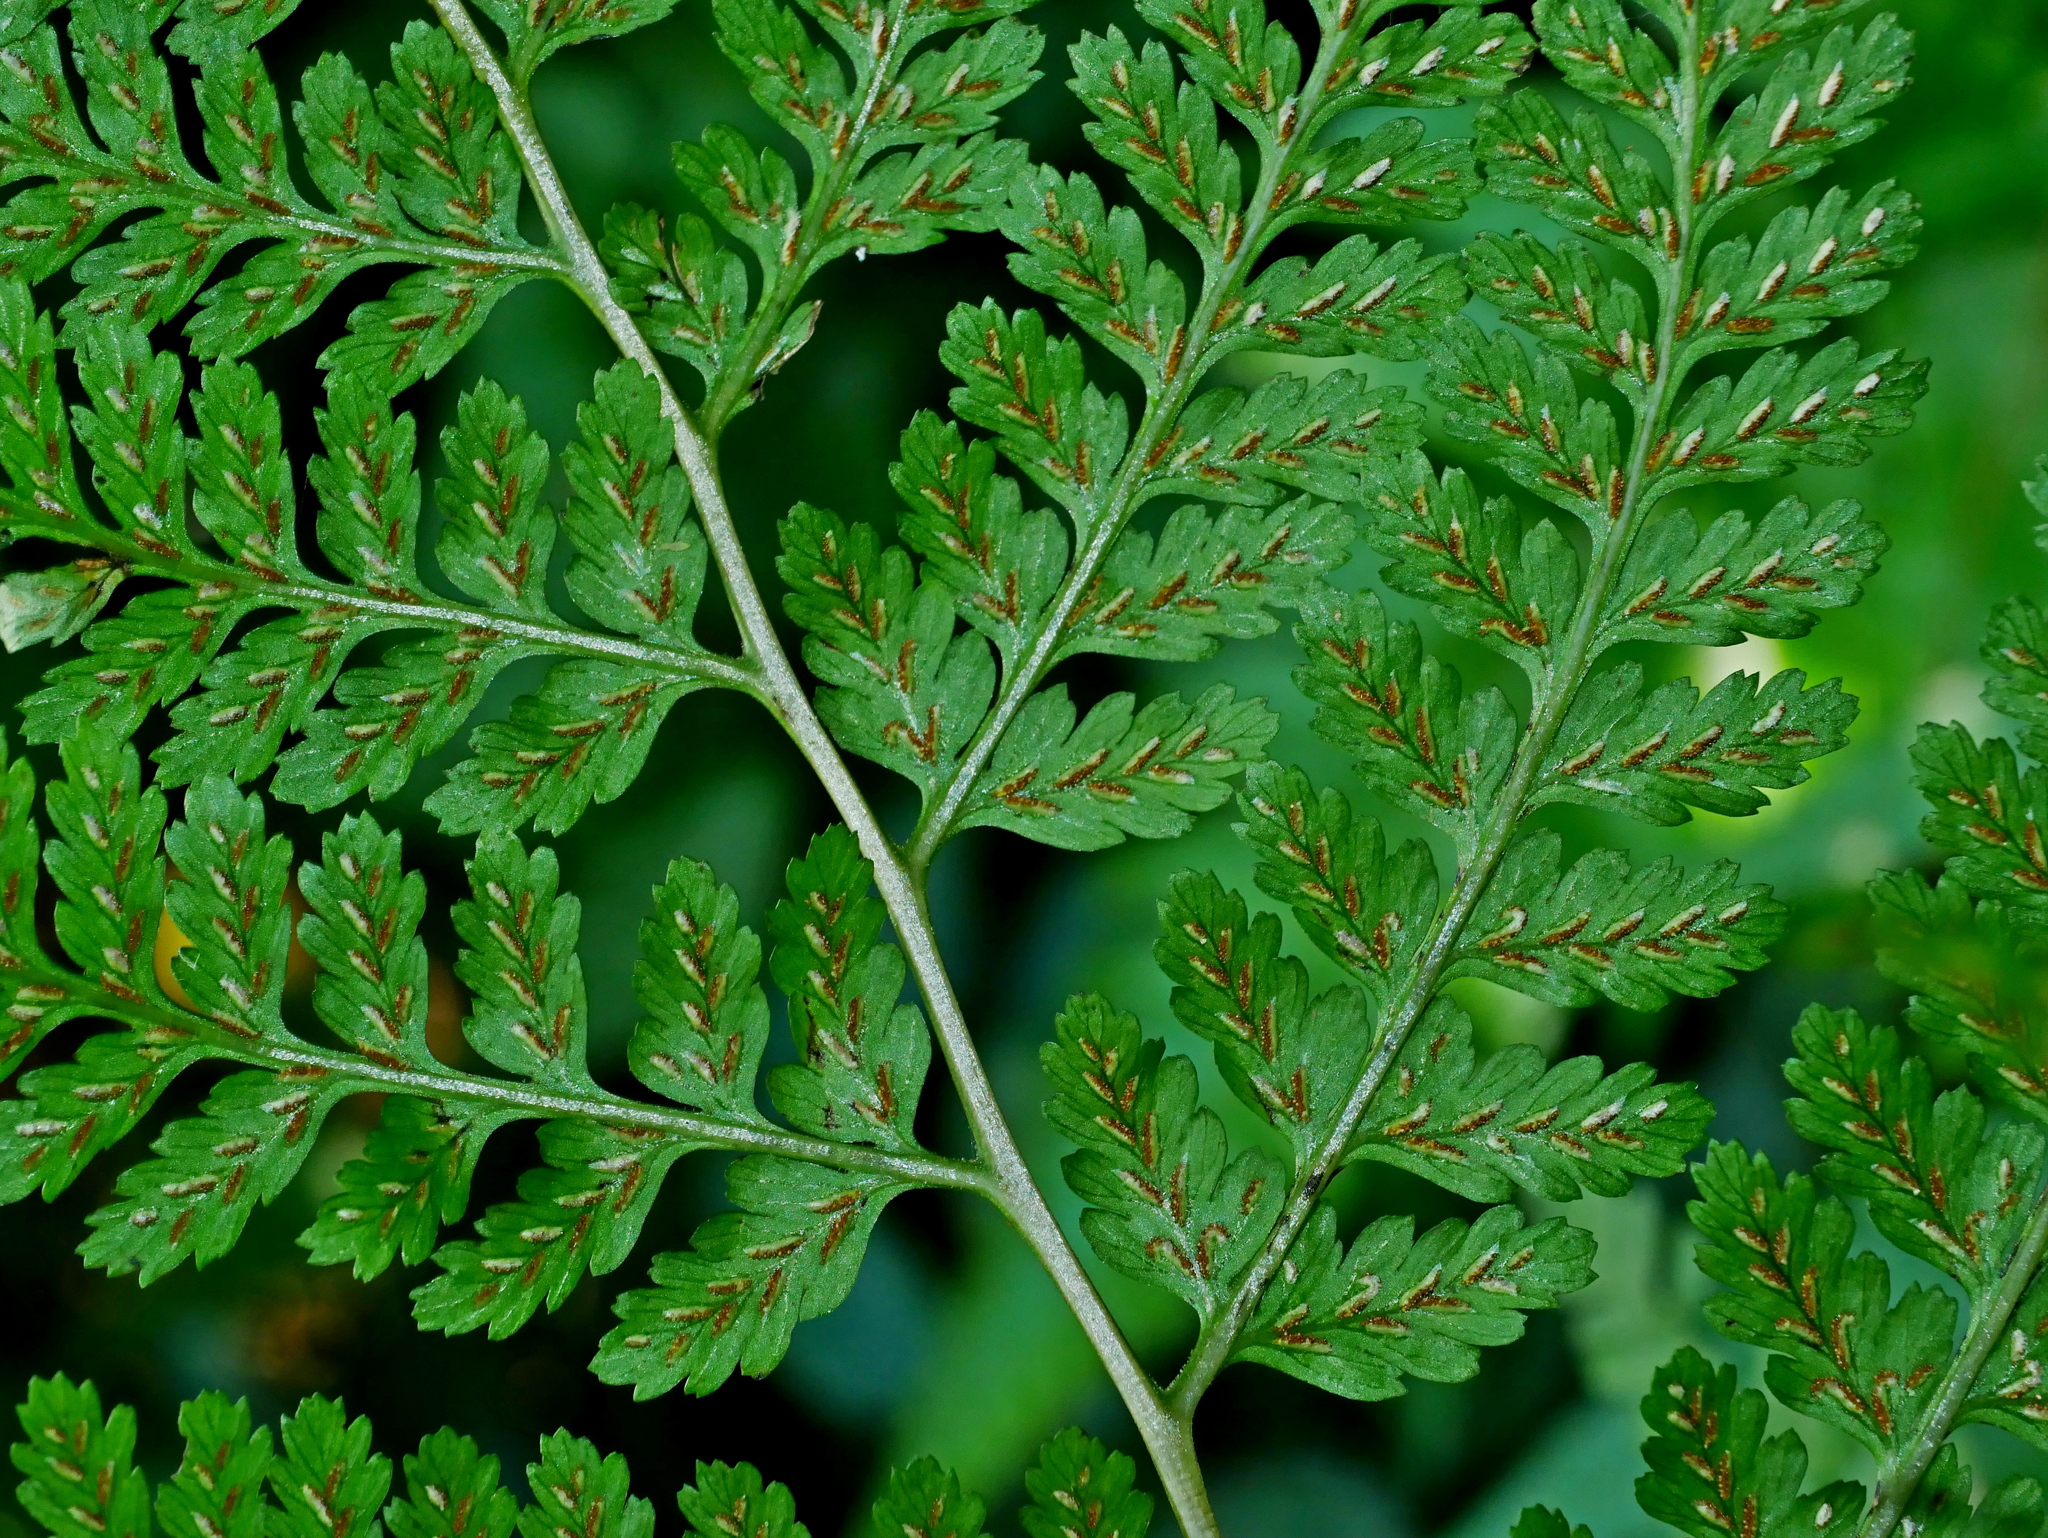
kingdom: Plantae
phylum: Tracheophyta
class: Polypodiopsida
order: Polypodiales
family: Athyriaceae
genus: Athyrium
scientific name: Athyrium silvicola
